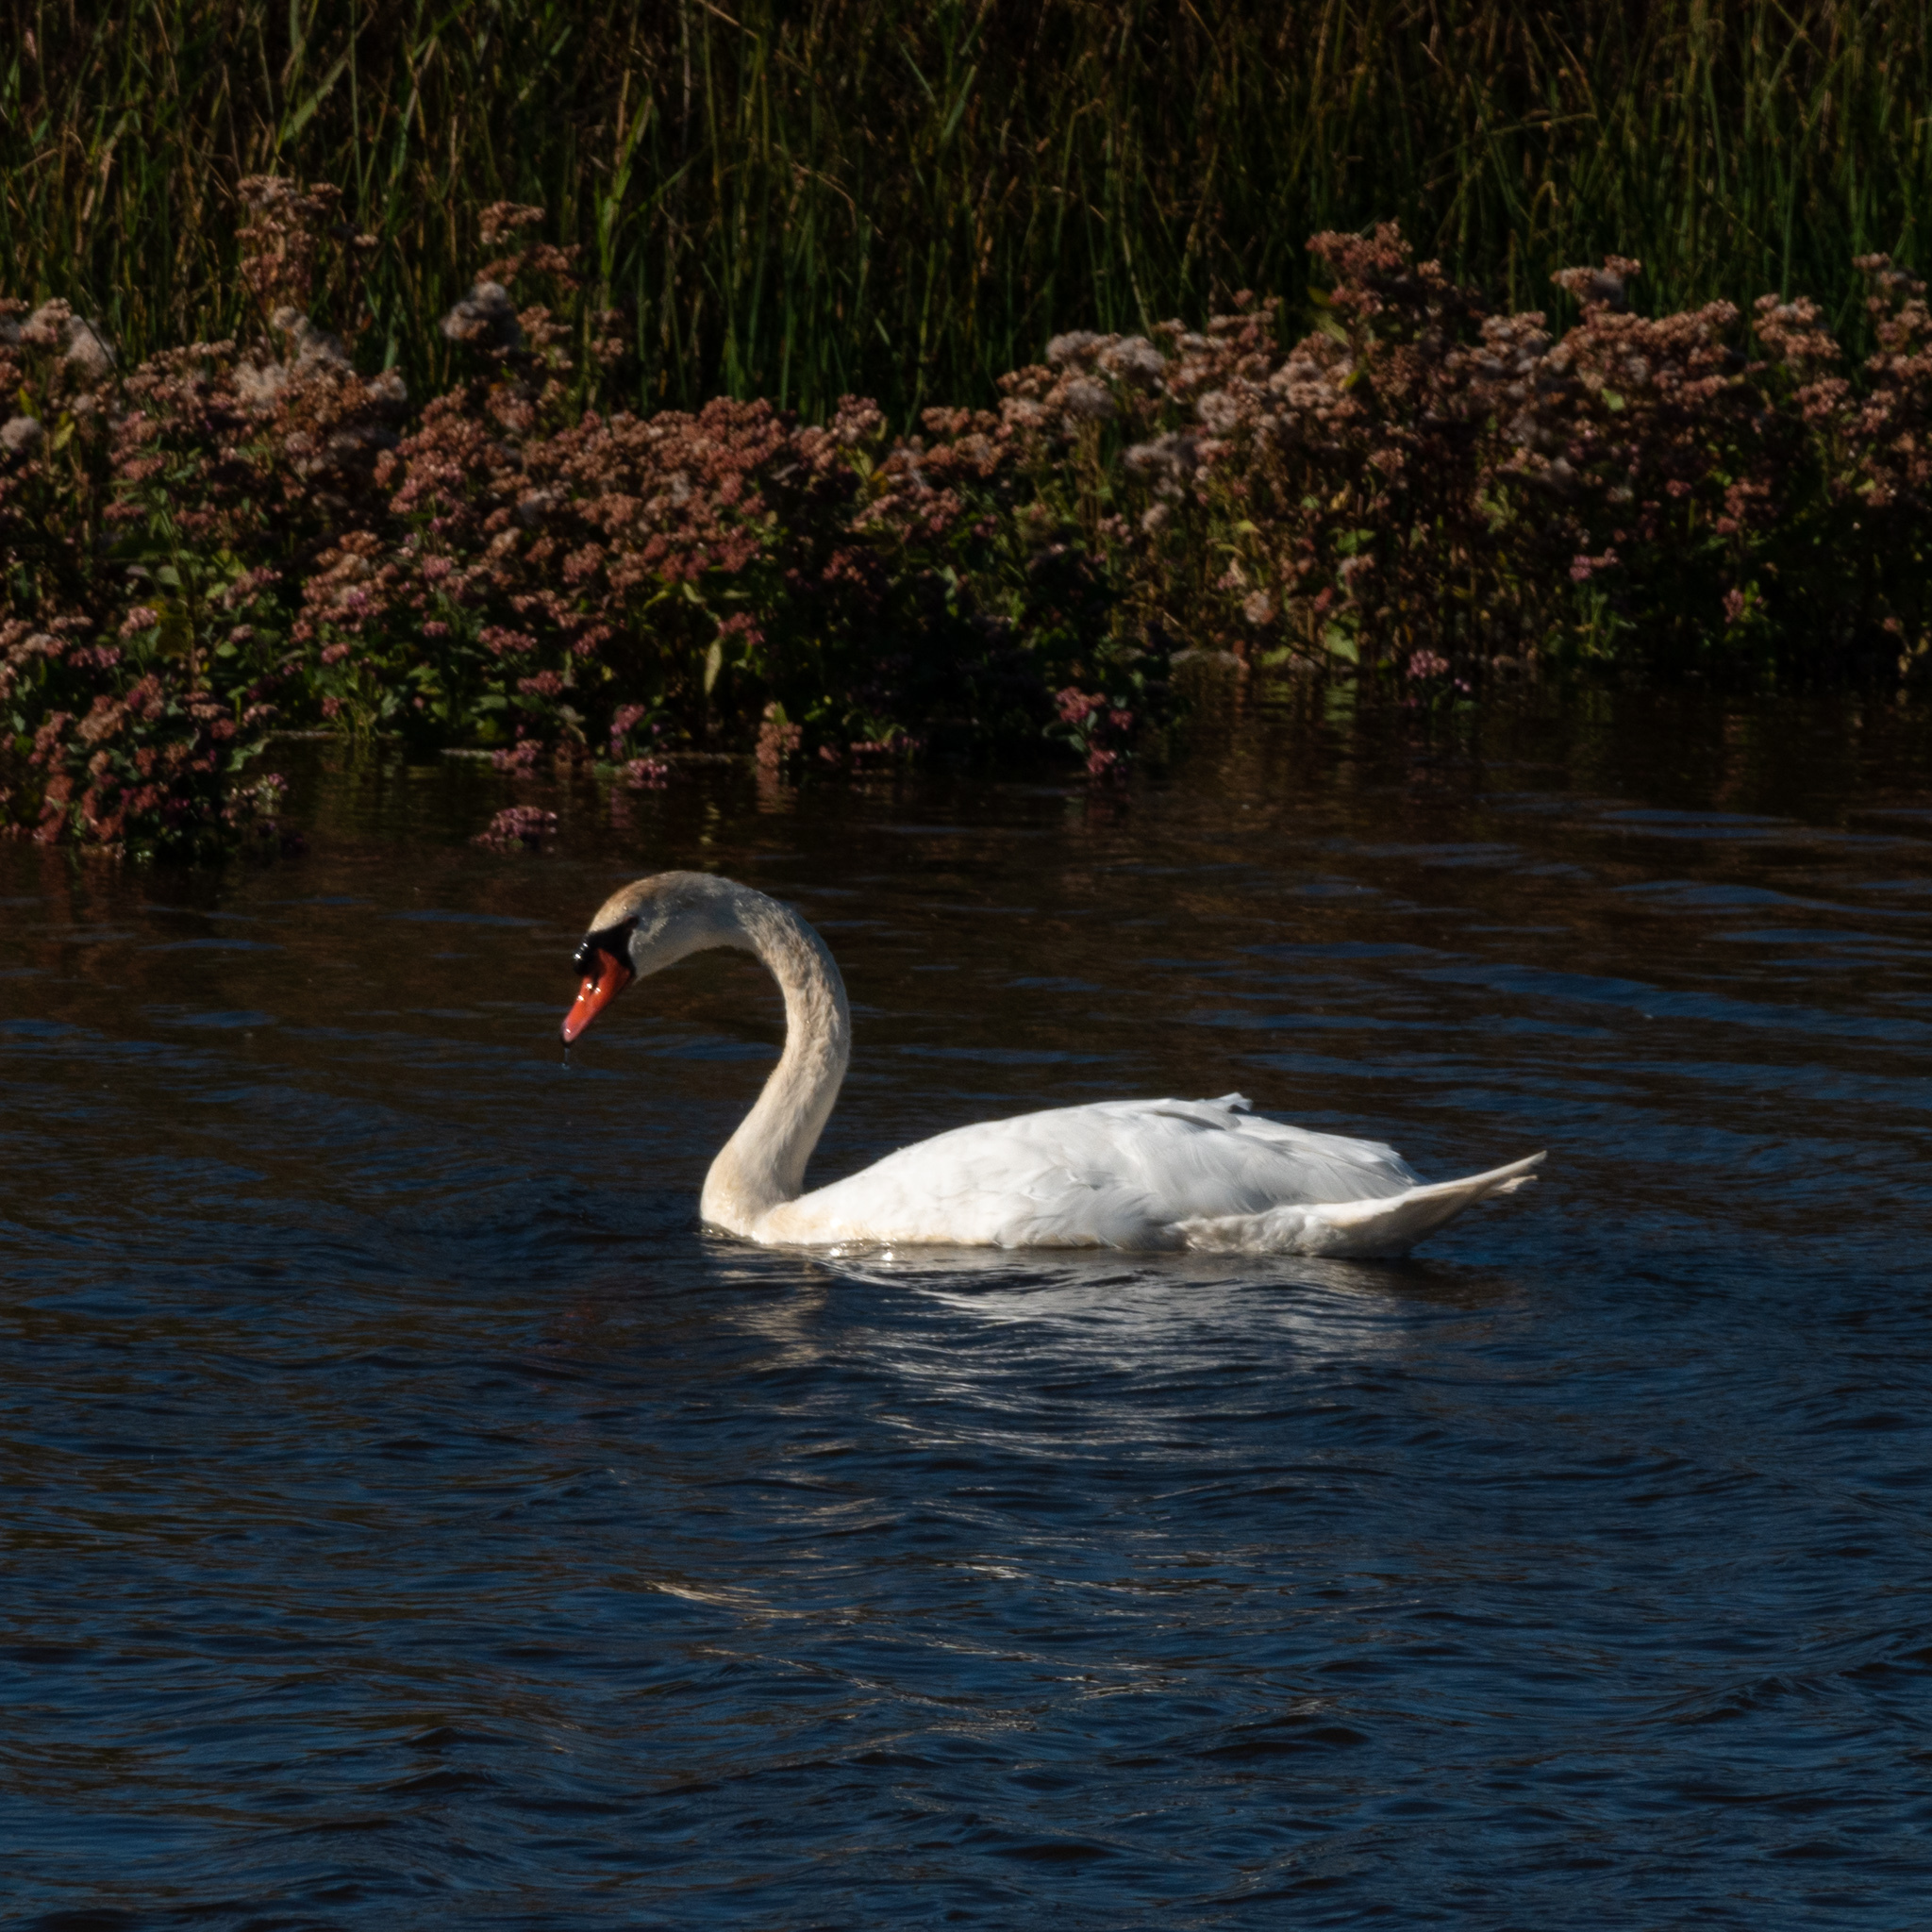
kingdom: Animalia
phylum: Chordata
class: Aves
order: Anseriformes
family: Anatidae
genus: Cygnus
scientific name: Cygnus olor
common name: Mute swan
